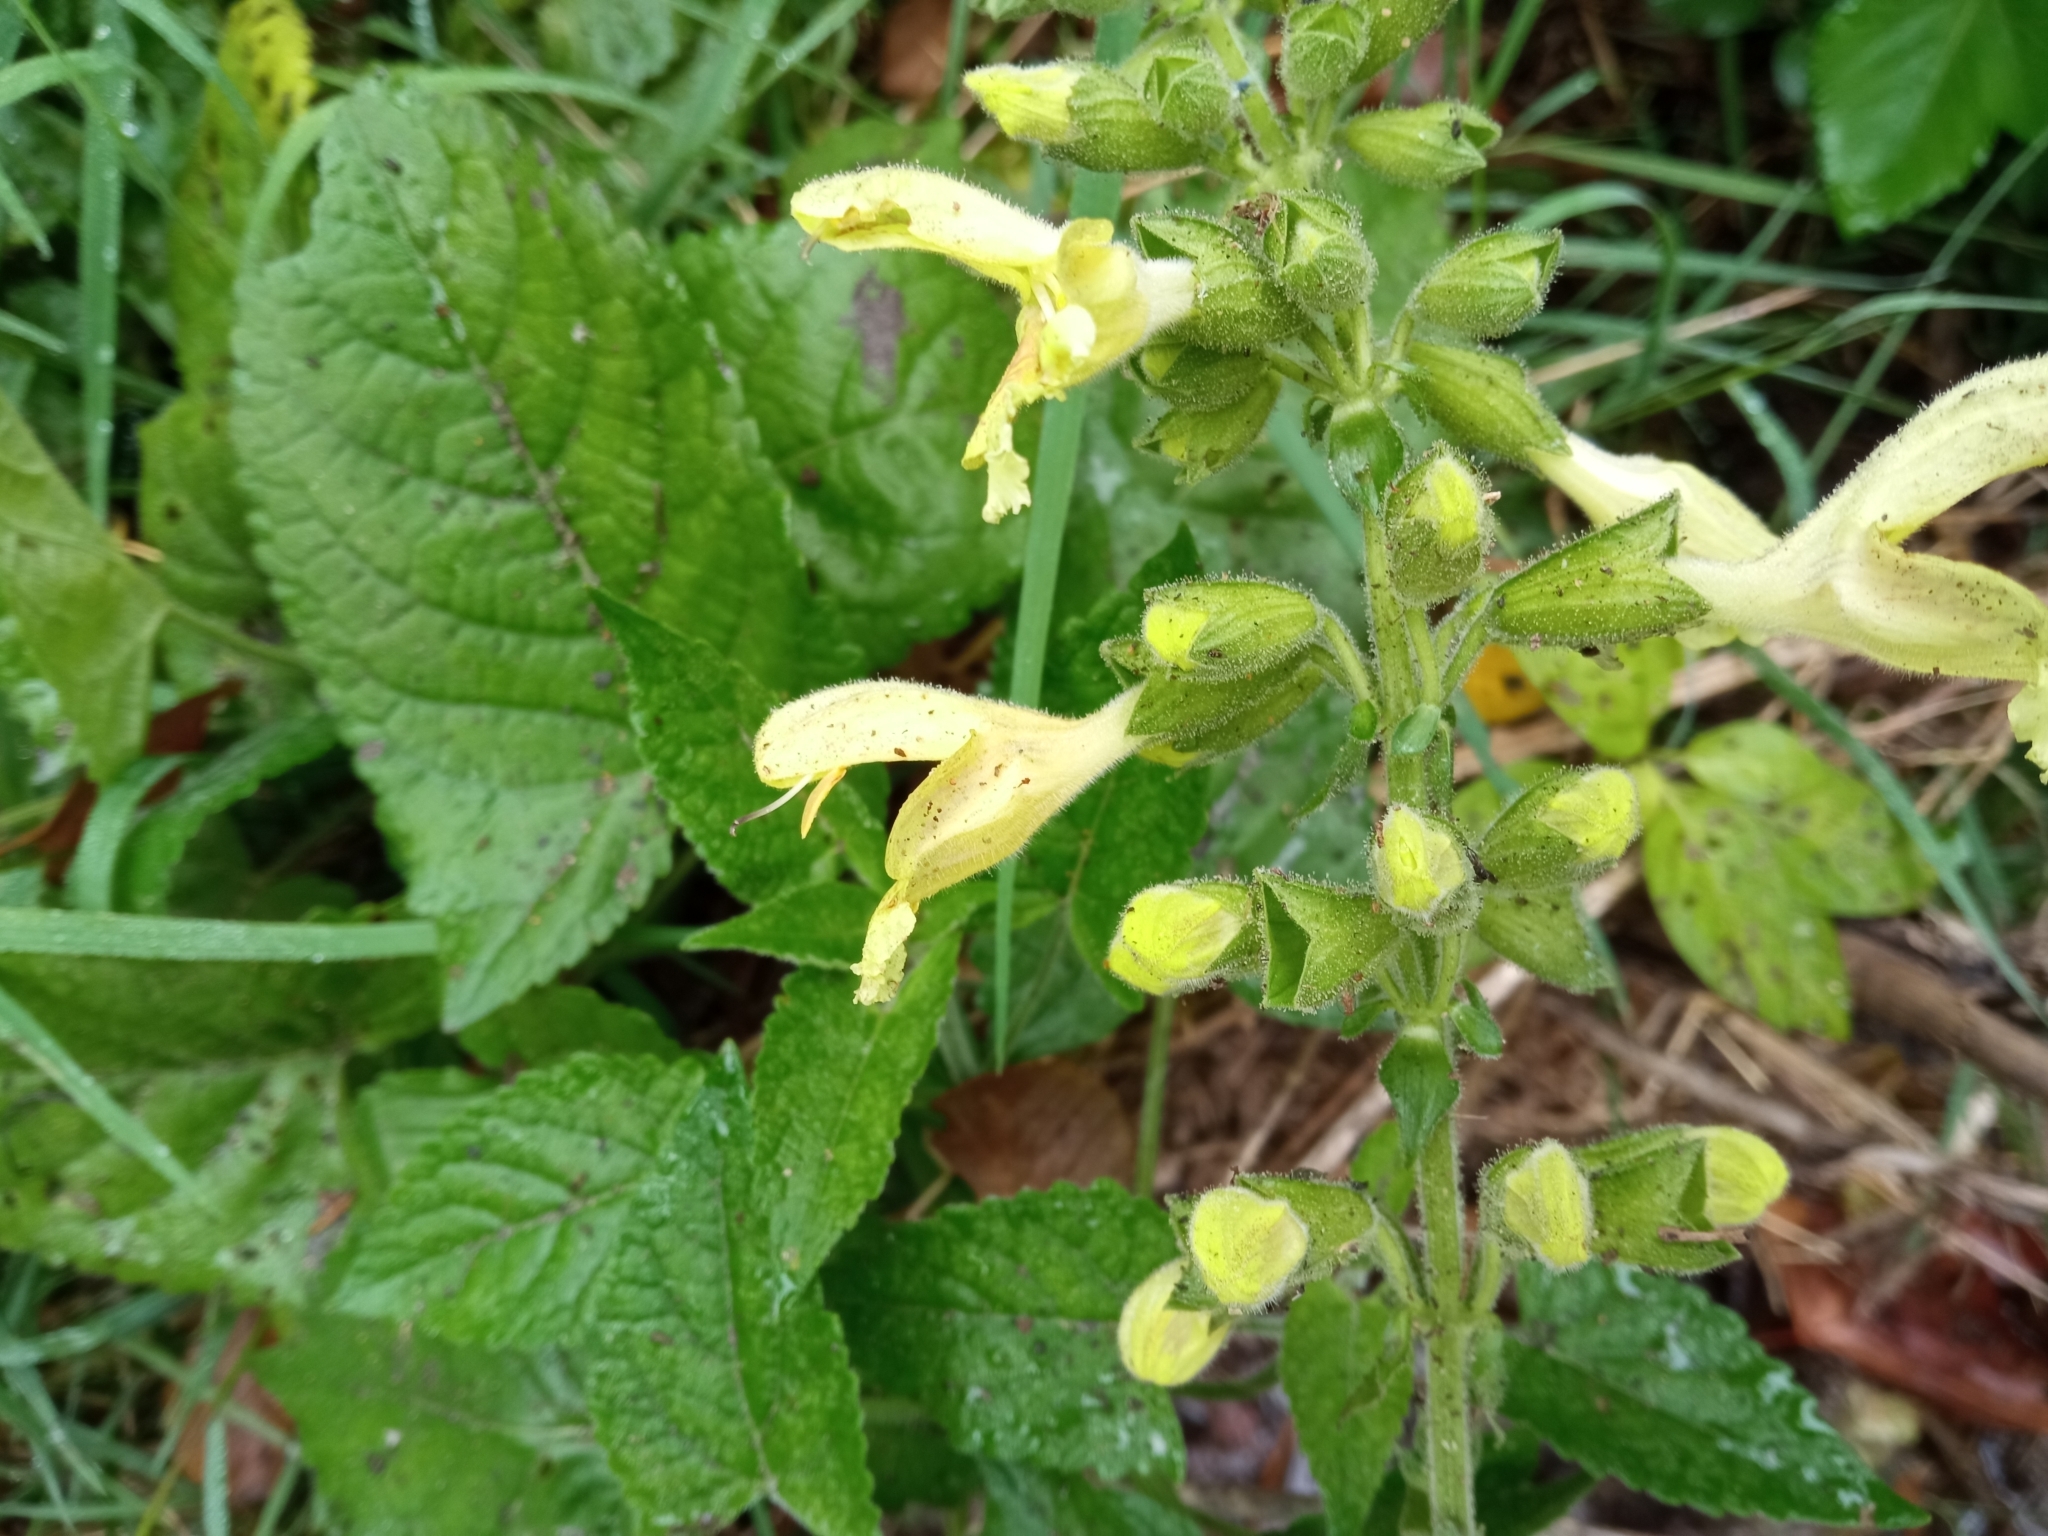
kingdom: Plantae
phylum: Tracheophyta
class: Magnoliopsida
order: Lamiales
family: Lamiaceae
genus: Salvia
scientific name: Salvia glutinosa
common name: Sticky clary
